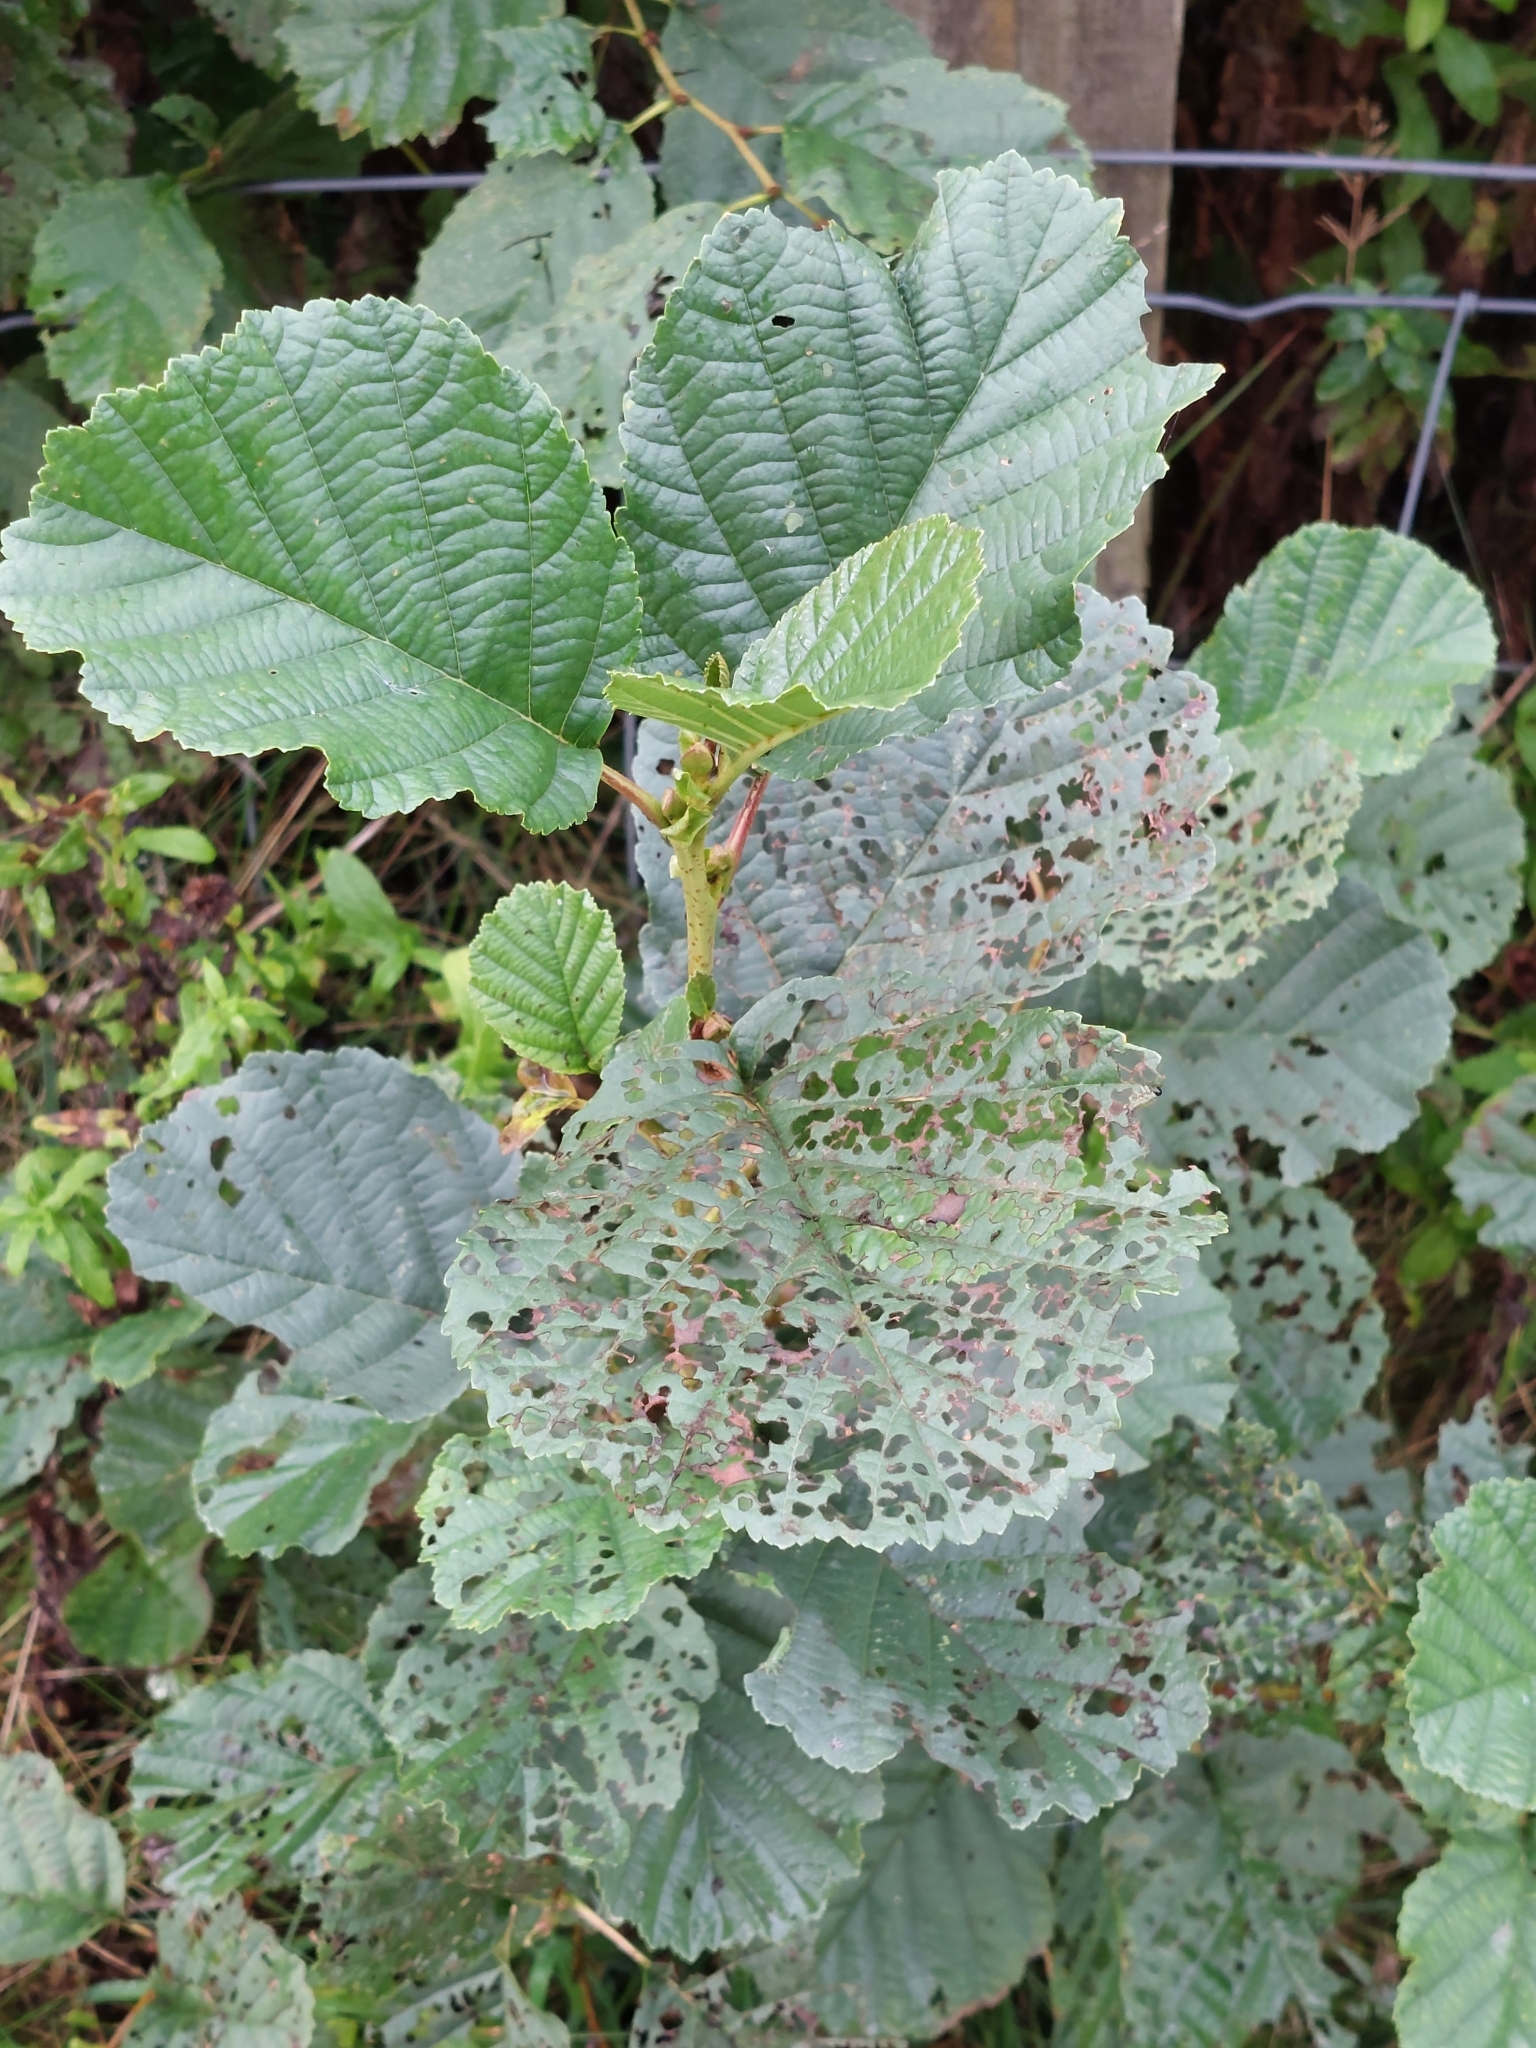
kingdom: Plantae
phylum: Tracheophyta
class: Magnoliopsida
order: Fagales
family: Betulaceae
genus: Alnus
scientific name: Alnus glutinosa
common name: Black alder
